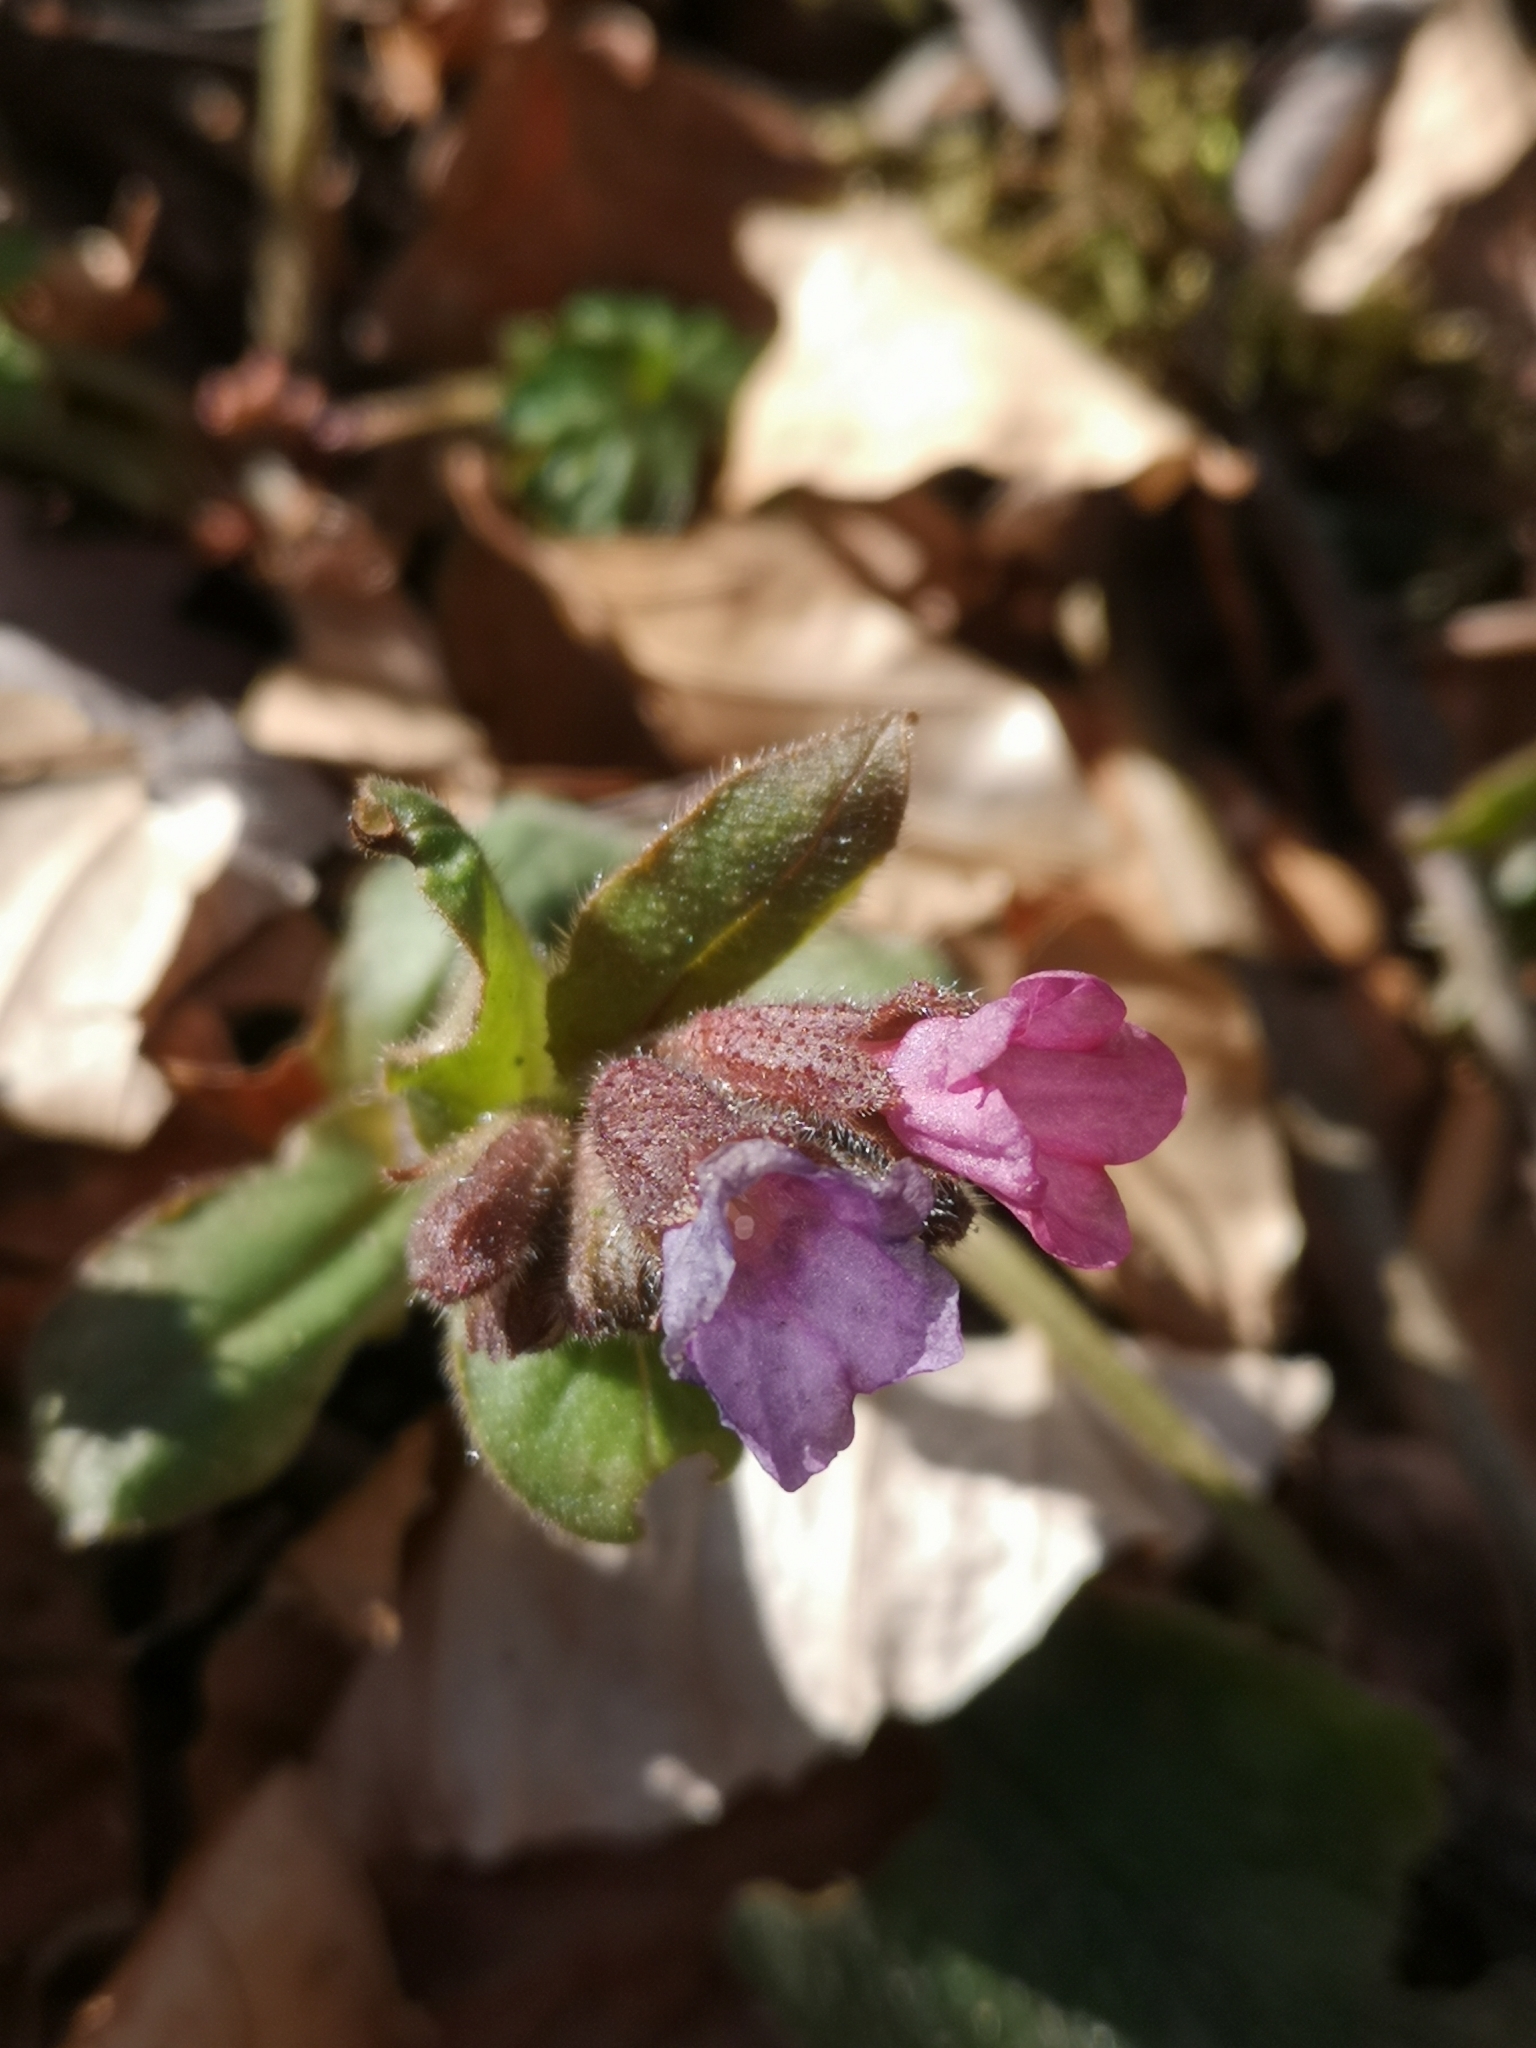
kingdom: Plantae
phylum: Tracheophyta
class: Magnoliopsida
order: Boraginales
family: Boraginaceae
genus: Pulmonaria
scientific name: Pulmonaria obscura
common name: Suffolk lungwort
